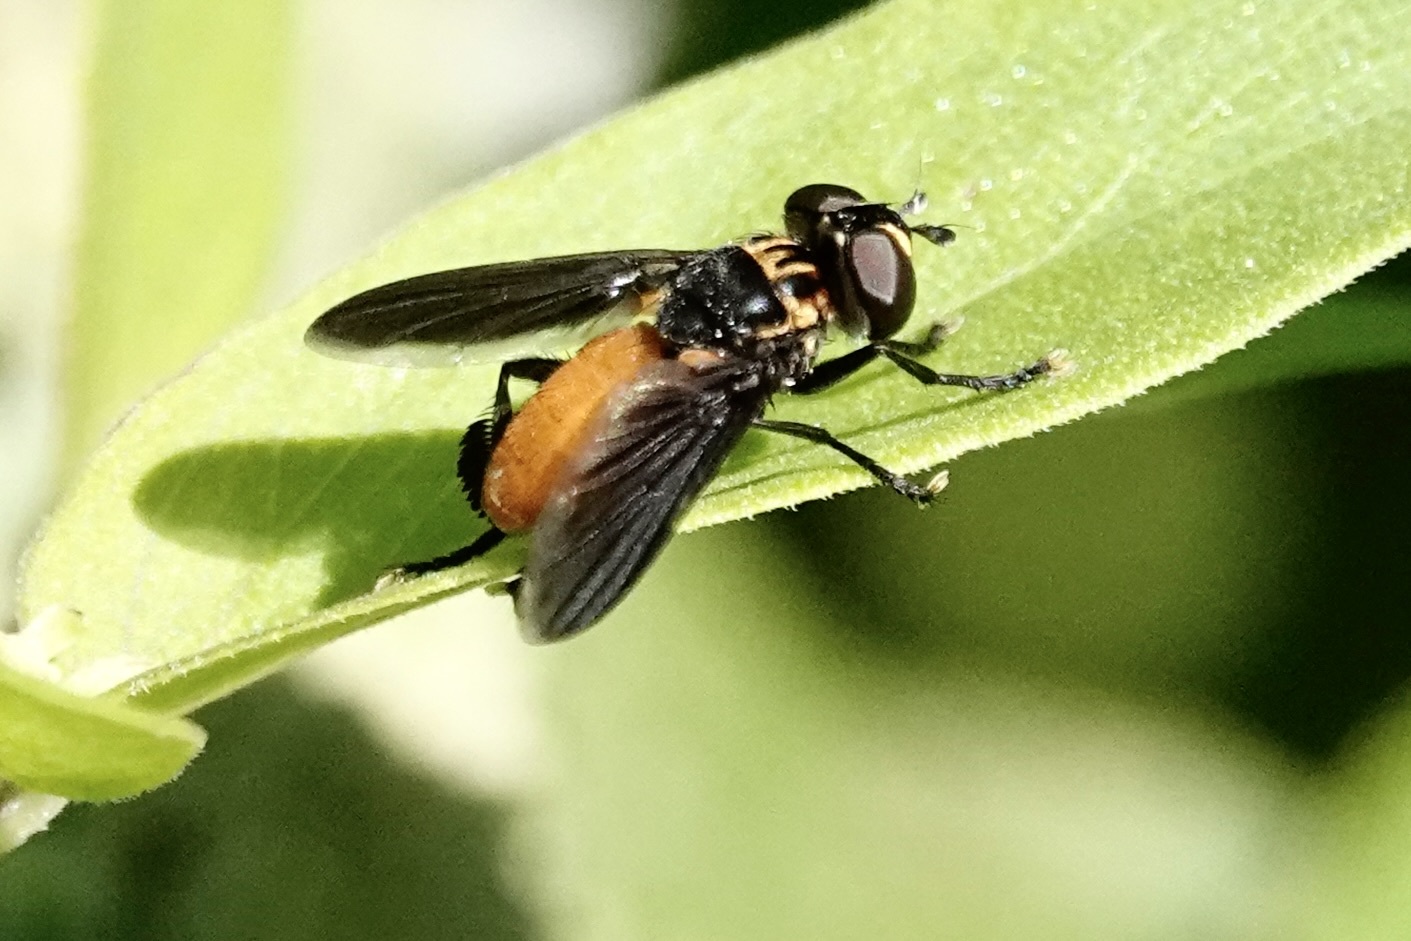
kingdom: Animalia
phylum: Arthropoda
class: Insecta
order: Diptera
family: Tachinidae
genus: Trichopoda
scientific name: Trichopoda pennipes
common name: Tachinid fly
